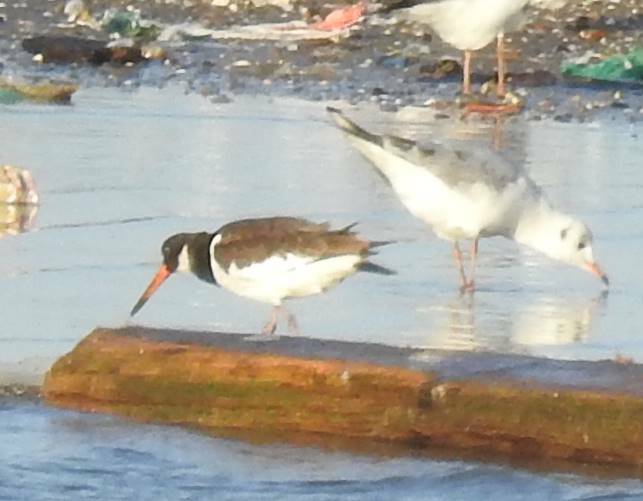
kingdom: Animalia
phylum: Chordata
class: Aves
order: Charadriiformes
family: Haematopodidae
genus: Haematopus
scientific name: Haematopus ostralegus
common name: Eurasian oystercatcher
